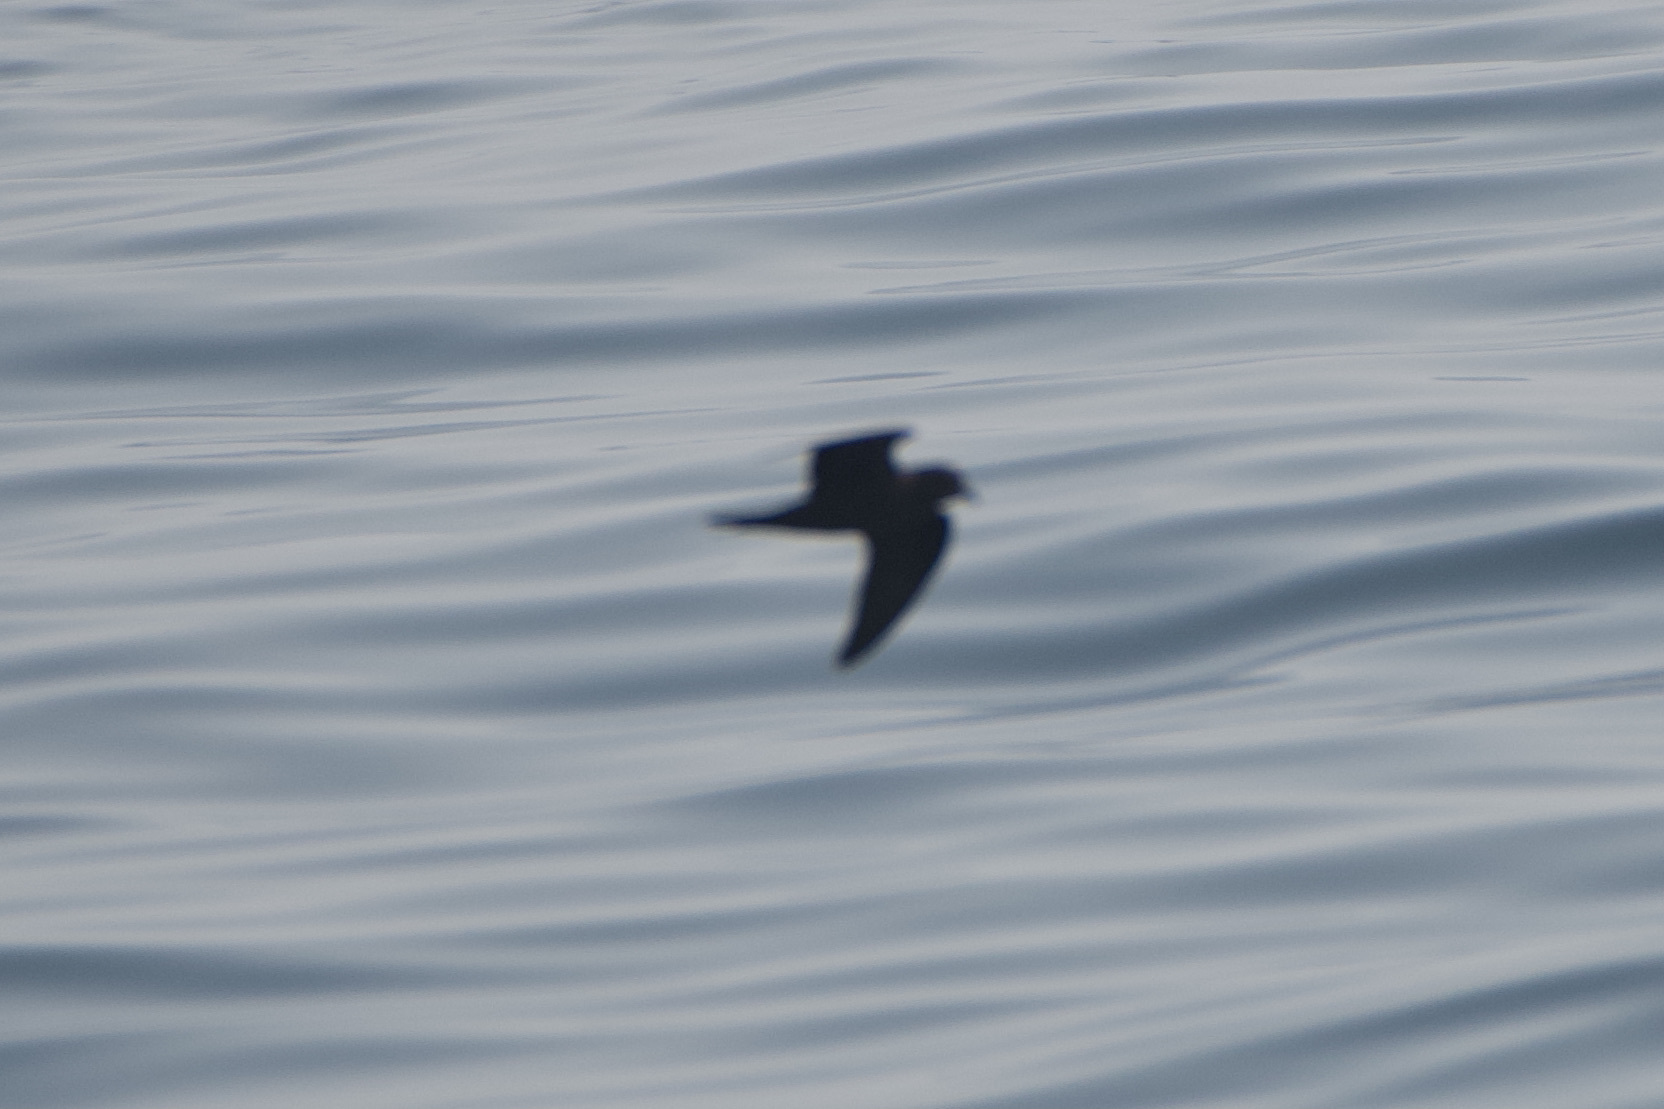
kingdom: Animalia
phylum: Chordata
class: Aves
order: Procellariiformes
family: Hydrobatidae
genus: Hydrobates
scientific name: Hydrobates
